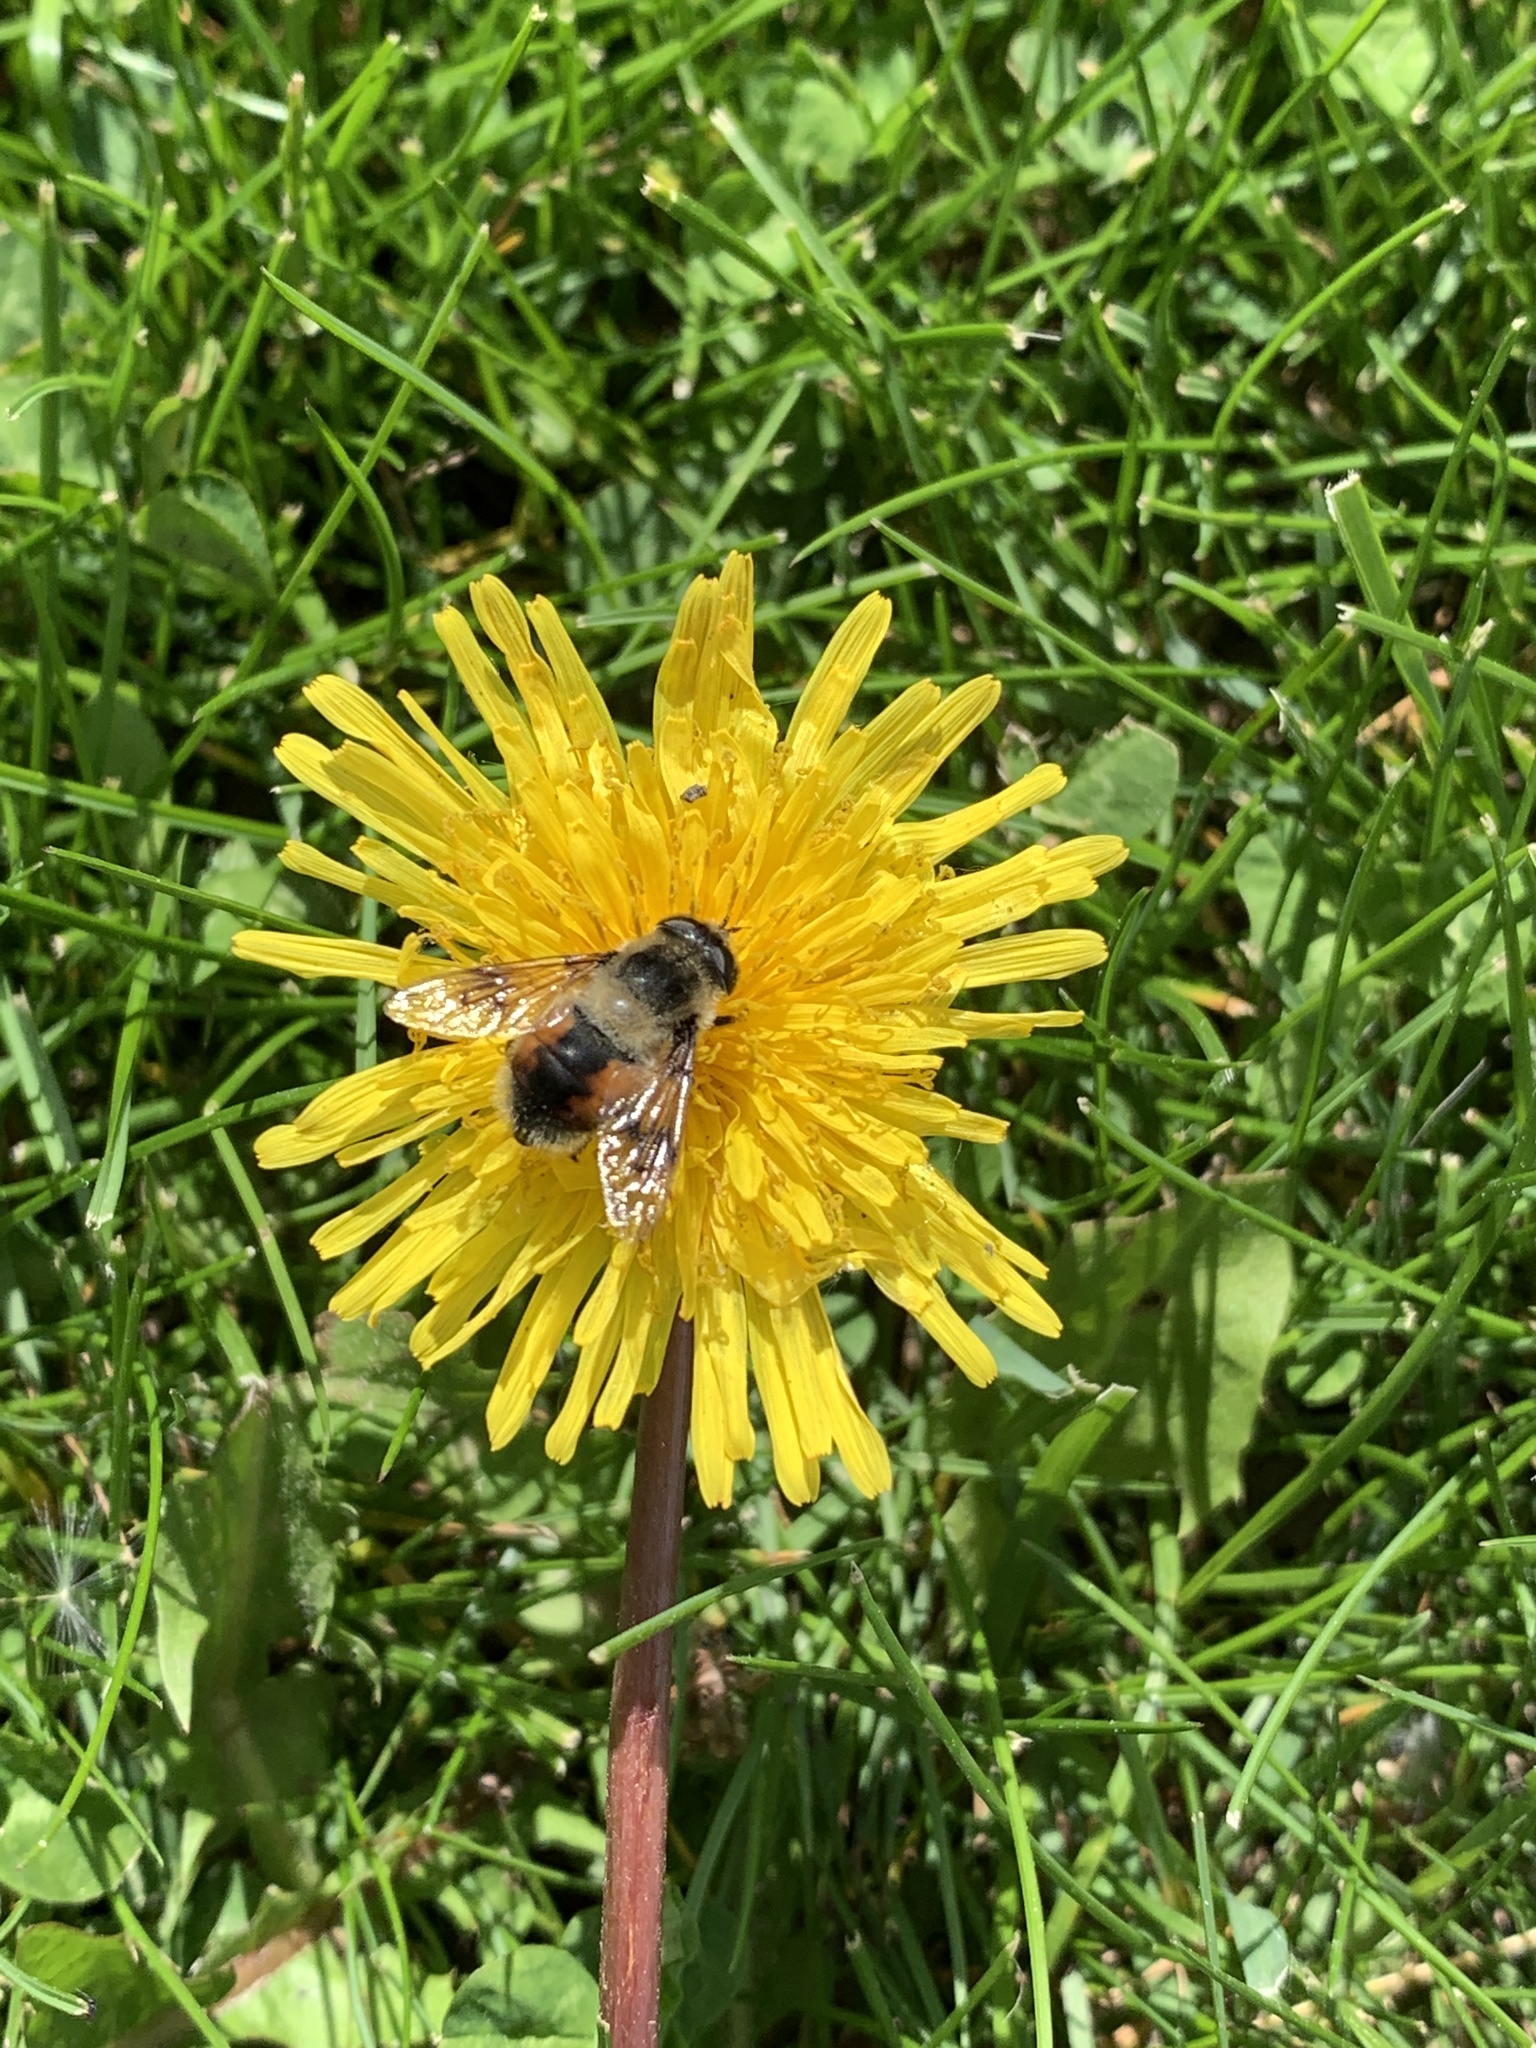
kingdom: Animalia
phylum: Arthropoda
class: Insecta
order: Diptera
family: Syrphidae
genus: Eristalis
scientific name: Eristalis anthophorina
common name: Orange-spotted drone fly
